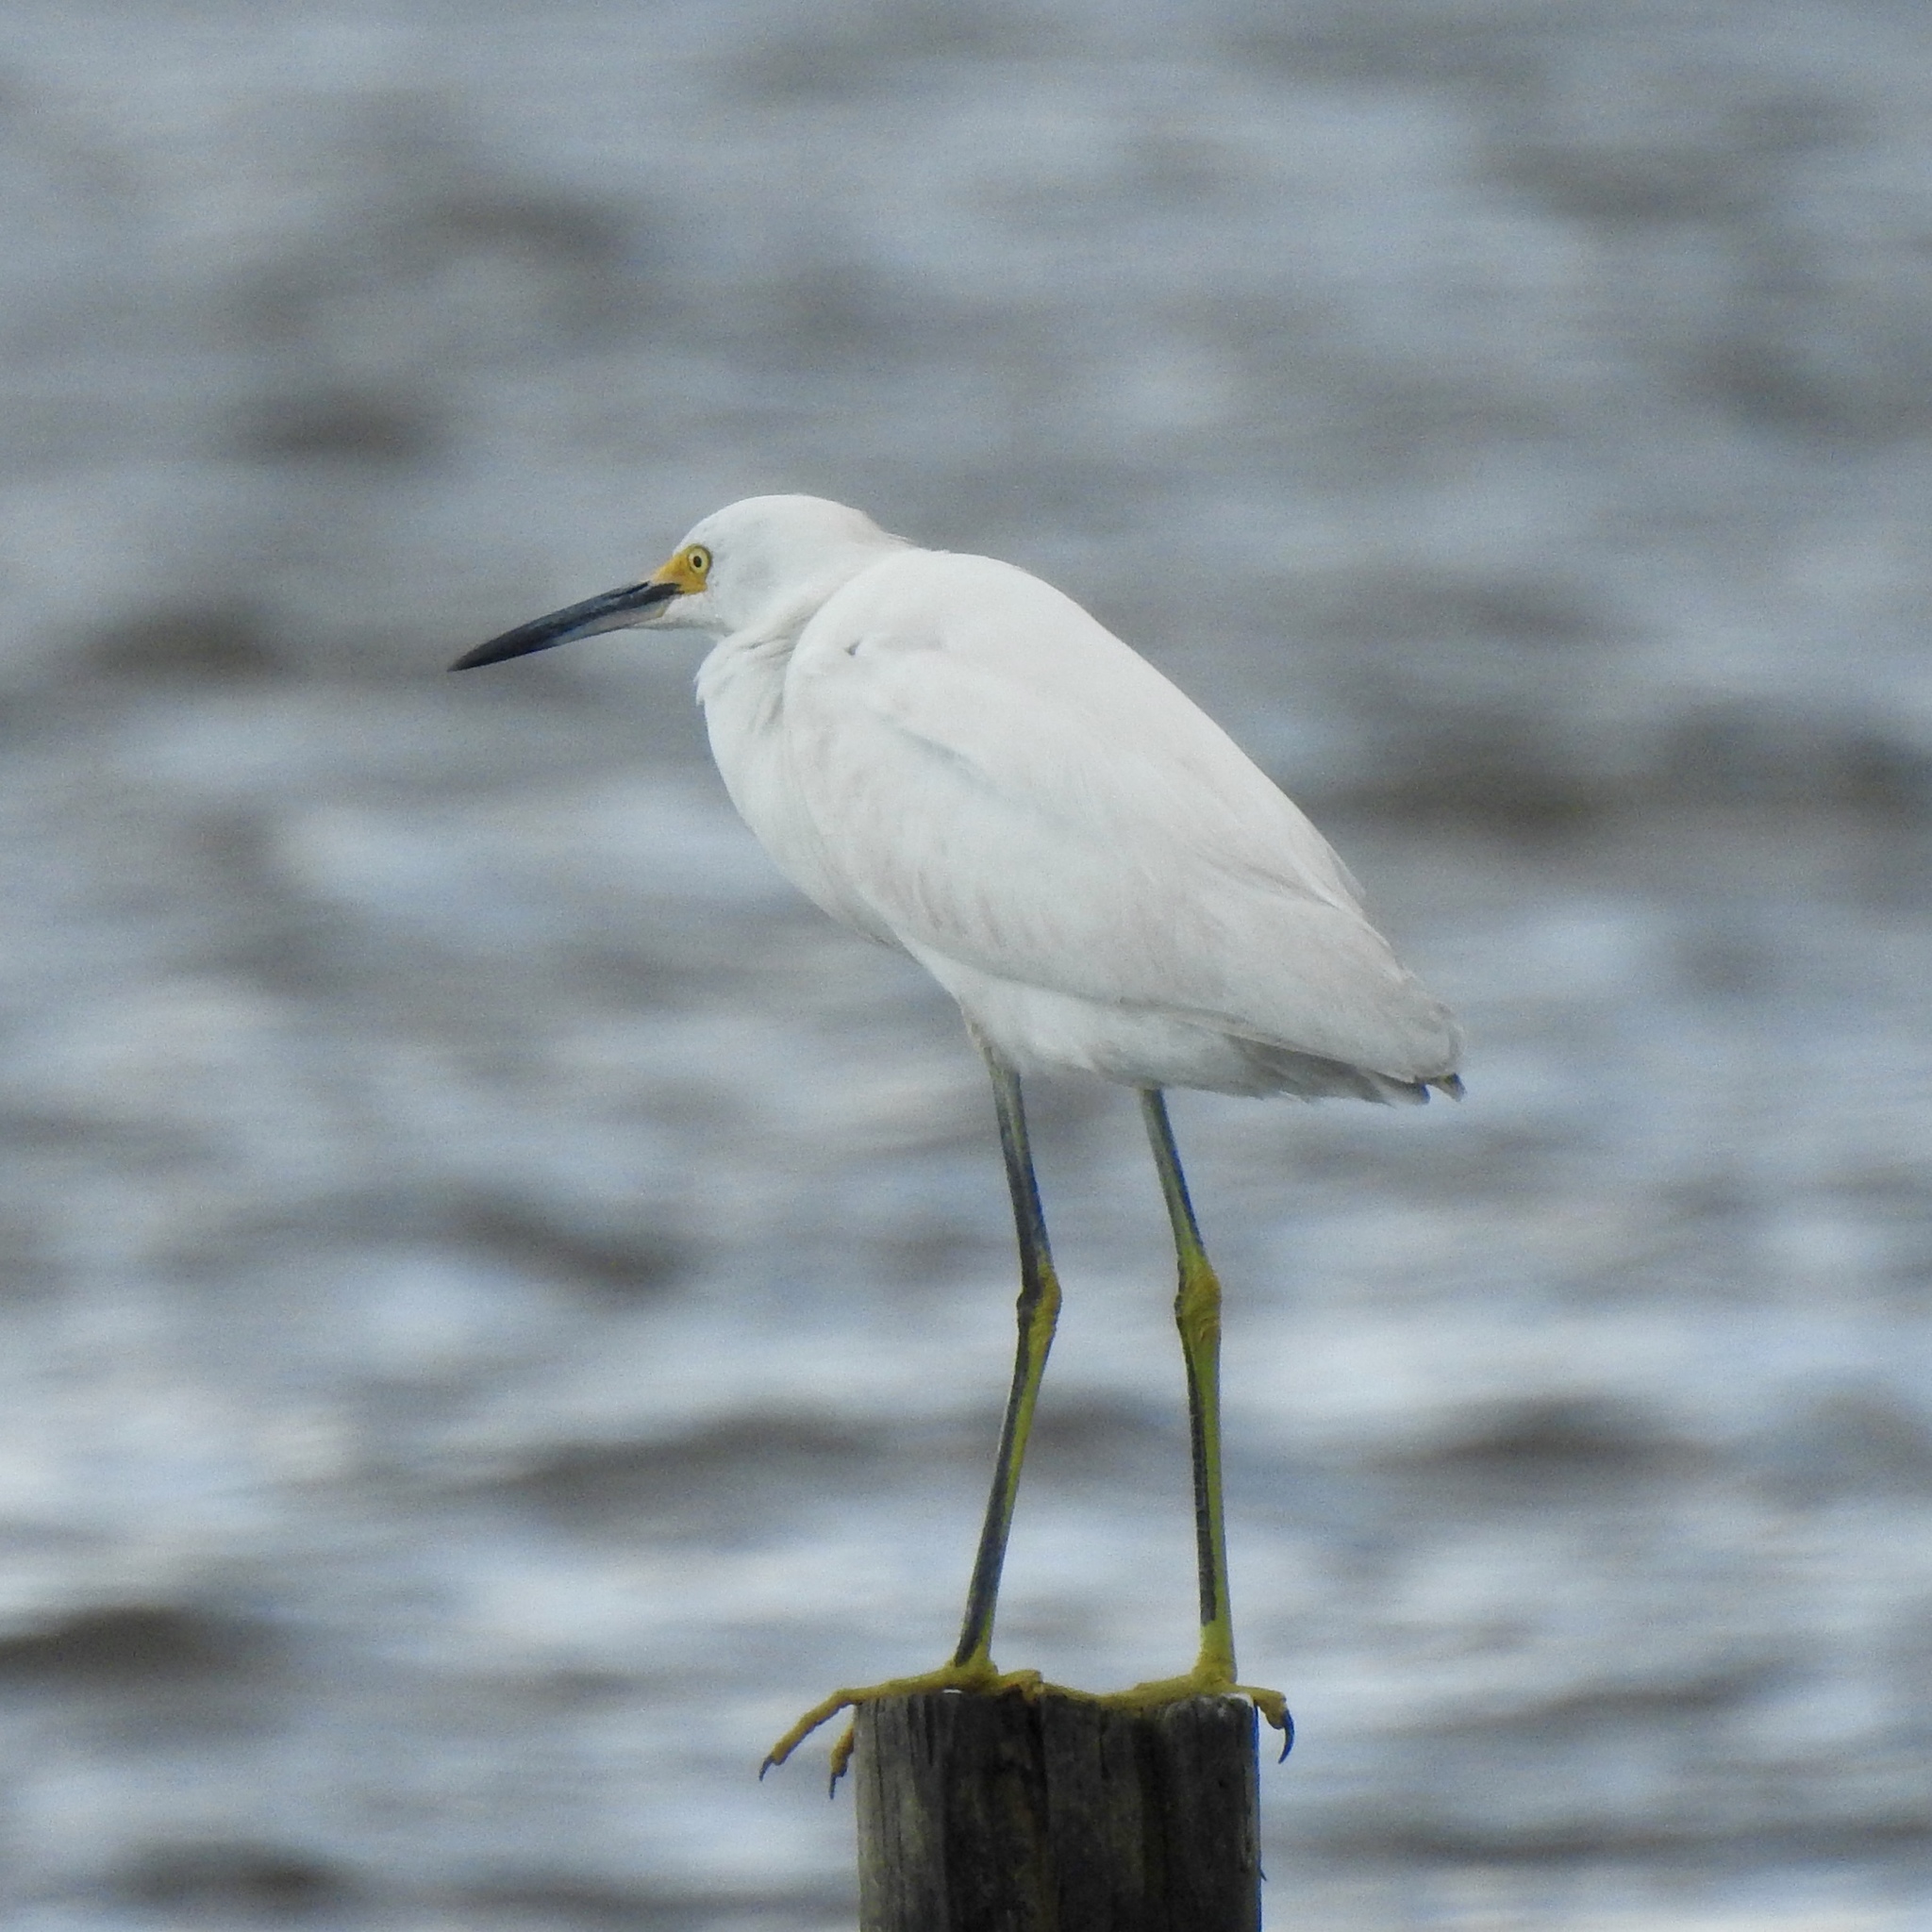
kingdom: Animalia
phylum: Chordata
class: Aves
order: Pelecaniformes
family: Ardeidae
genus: Egretta
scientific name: Egretta thula
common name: Snowy egret
